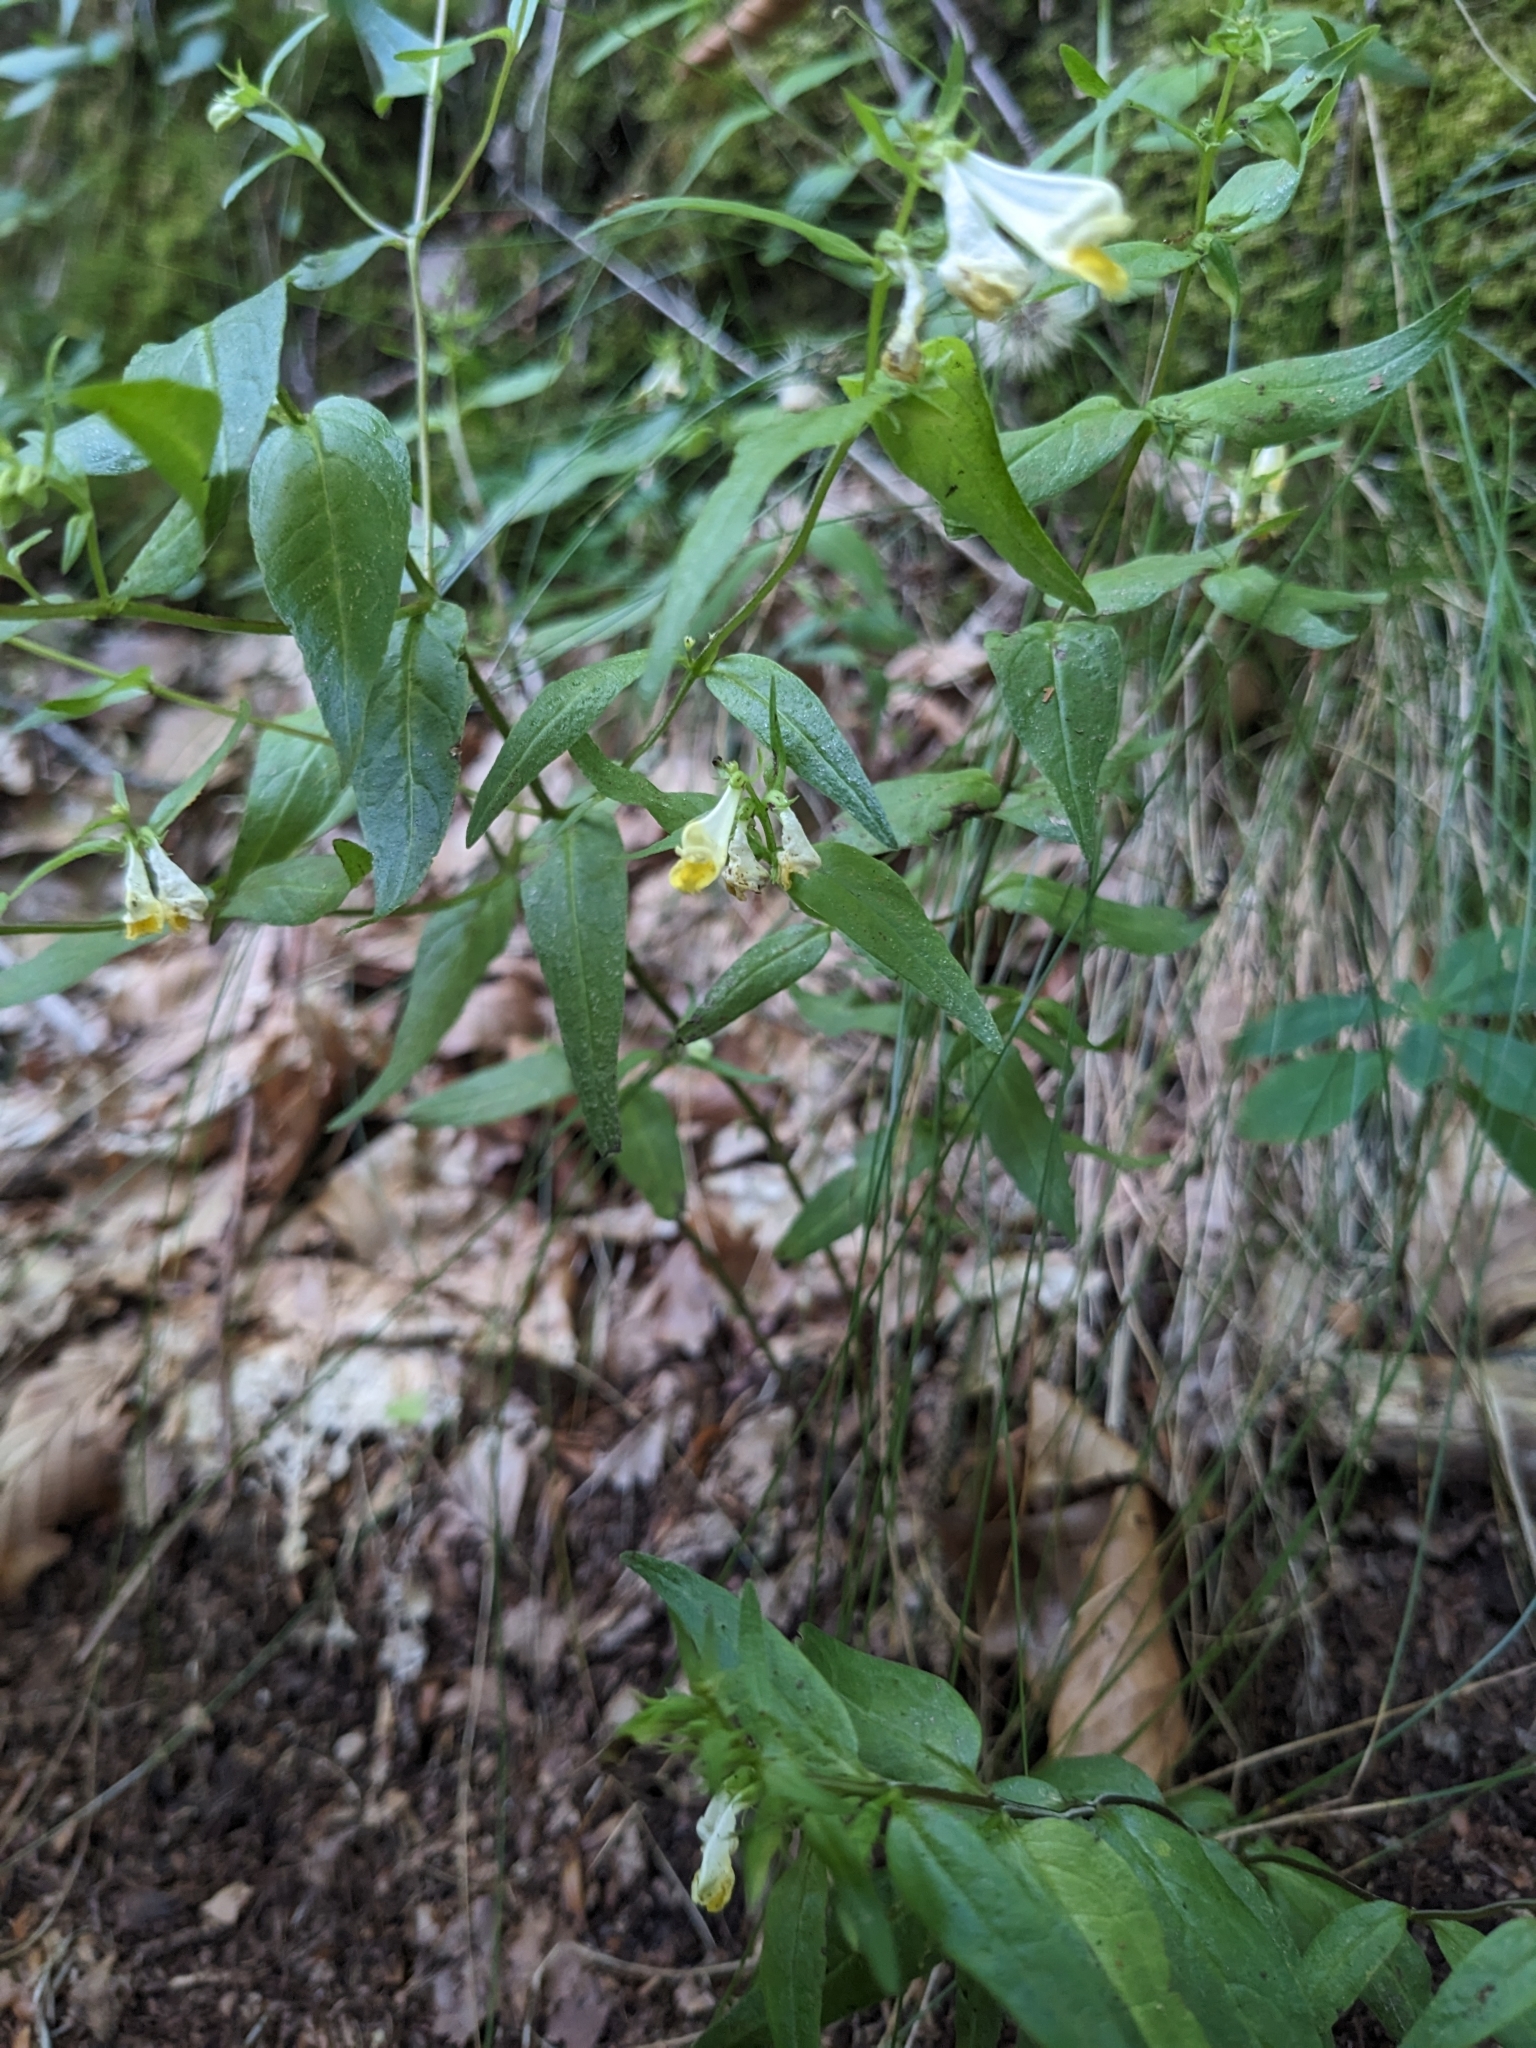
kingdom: Plantae
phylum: Tracheophyta
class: Magnoliopsida
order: Lamiales
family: Orobanchaceae
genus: Melampyrum
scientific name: Melampyrum pratense
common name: Common cow-wheat
